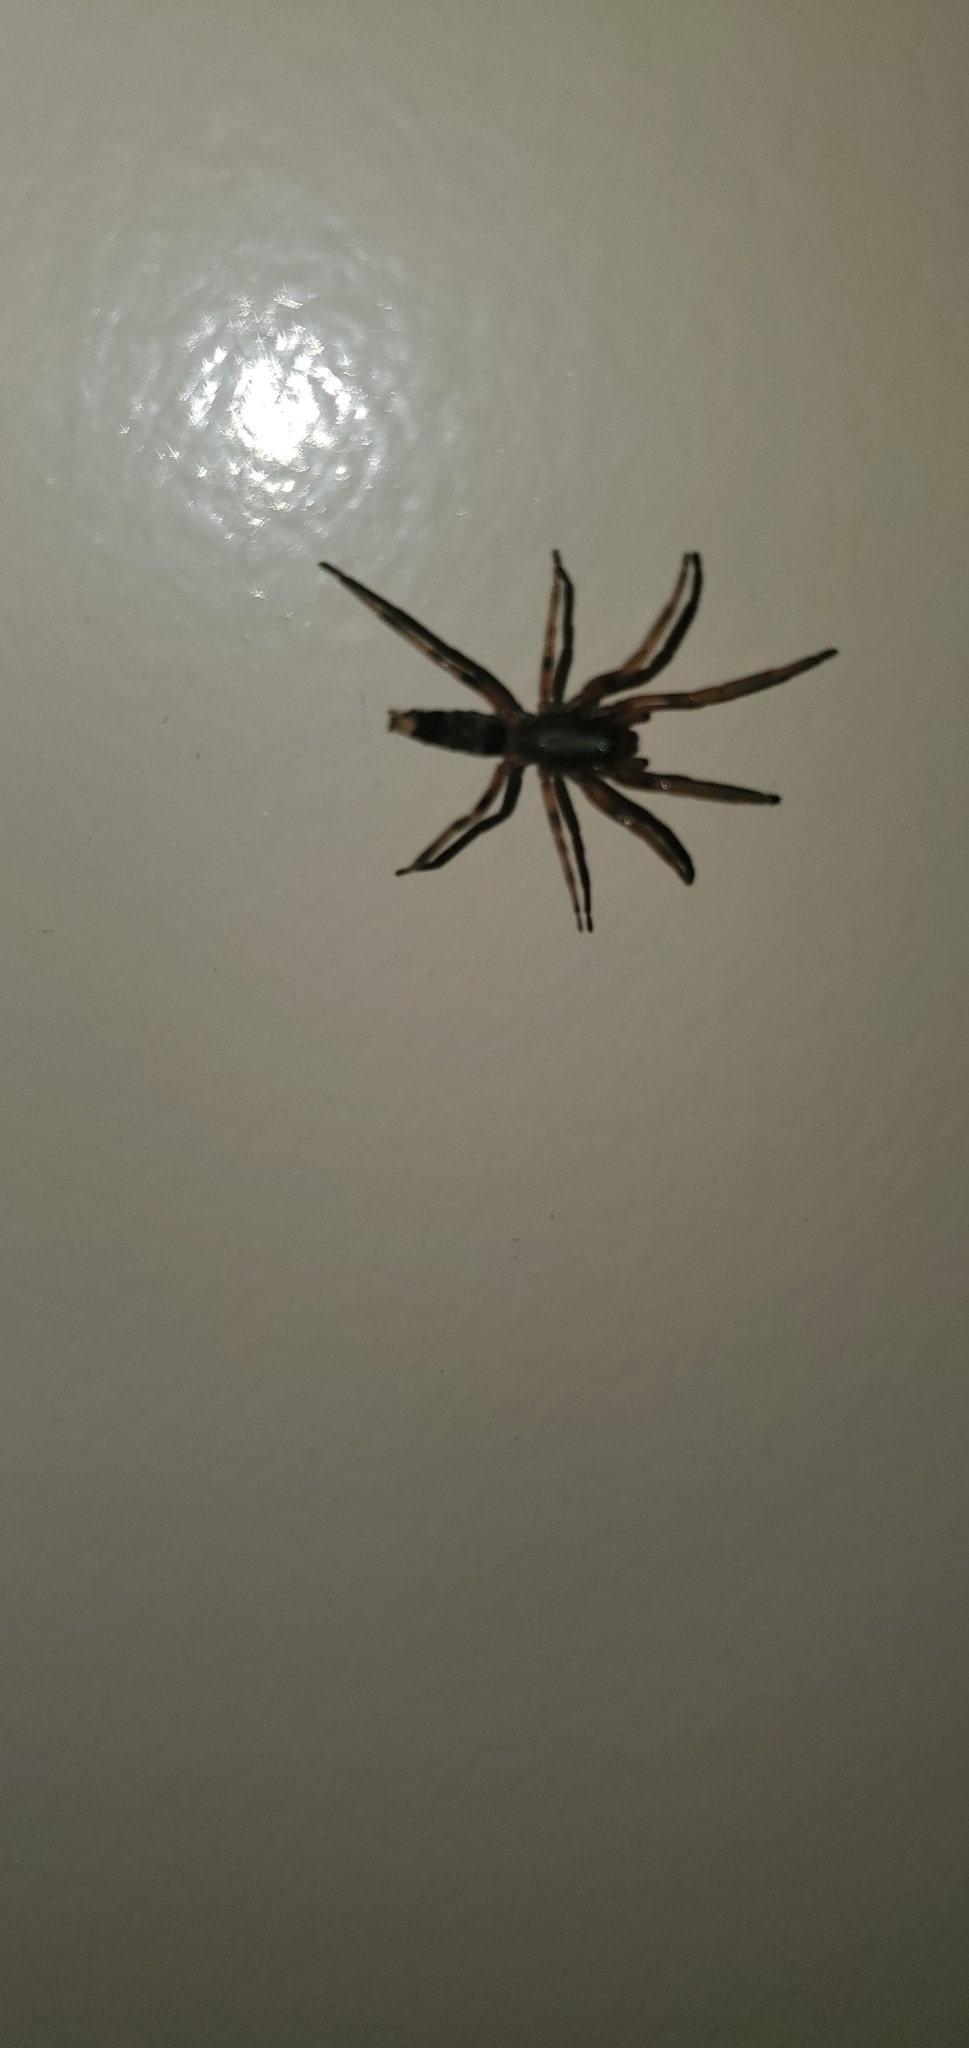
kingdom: Animalia
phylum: Arthropoda
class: Arachnida
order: Araneae
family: Lamponidae
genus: Lampona
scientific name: Lampona murina
